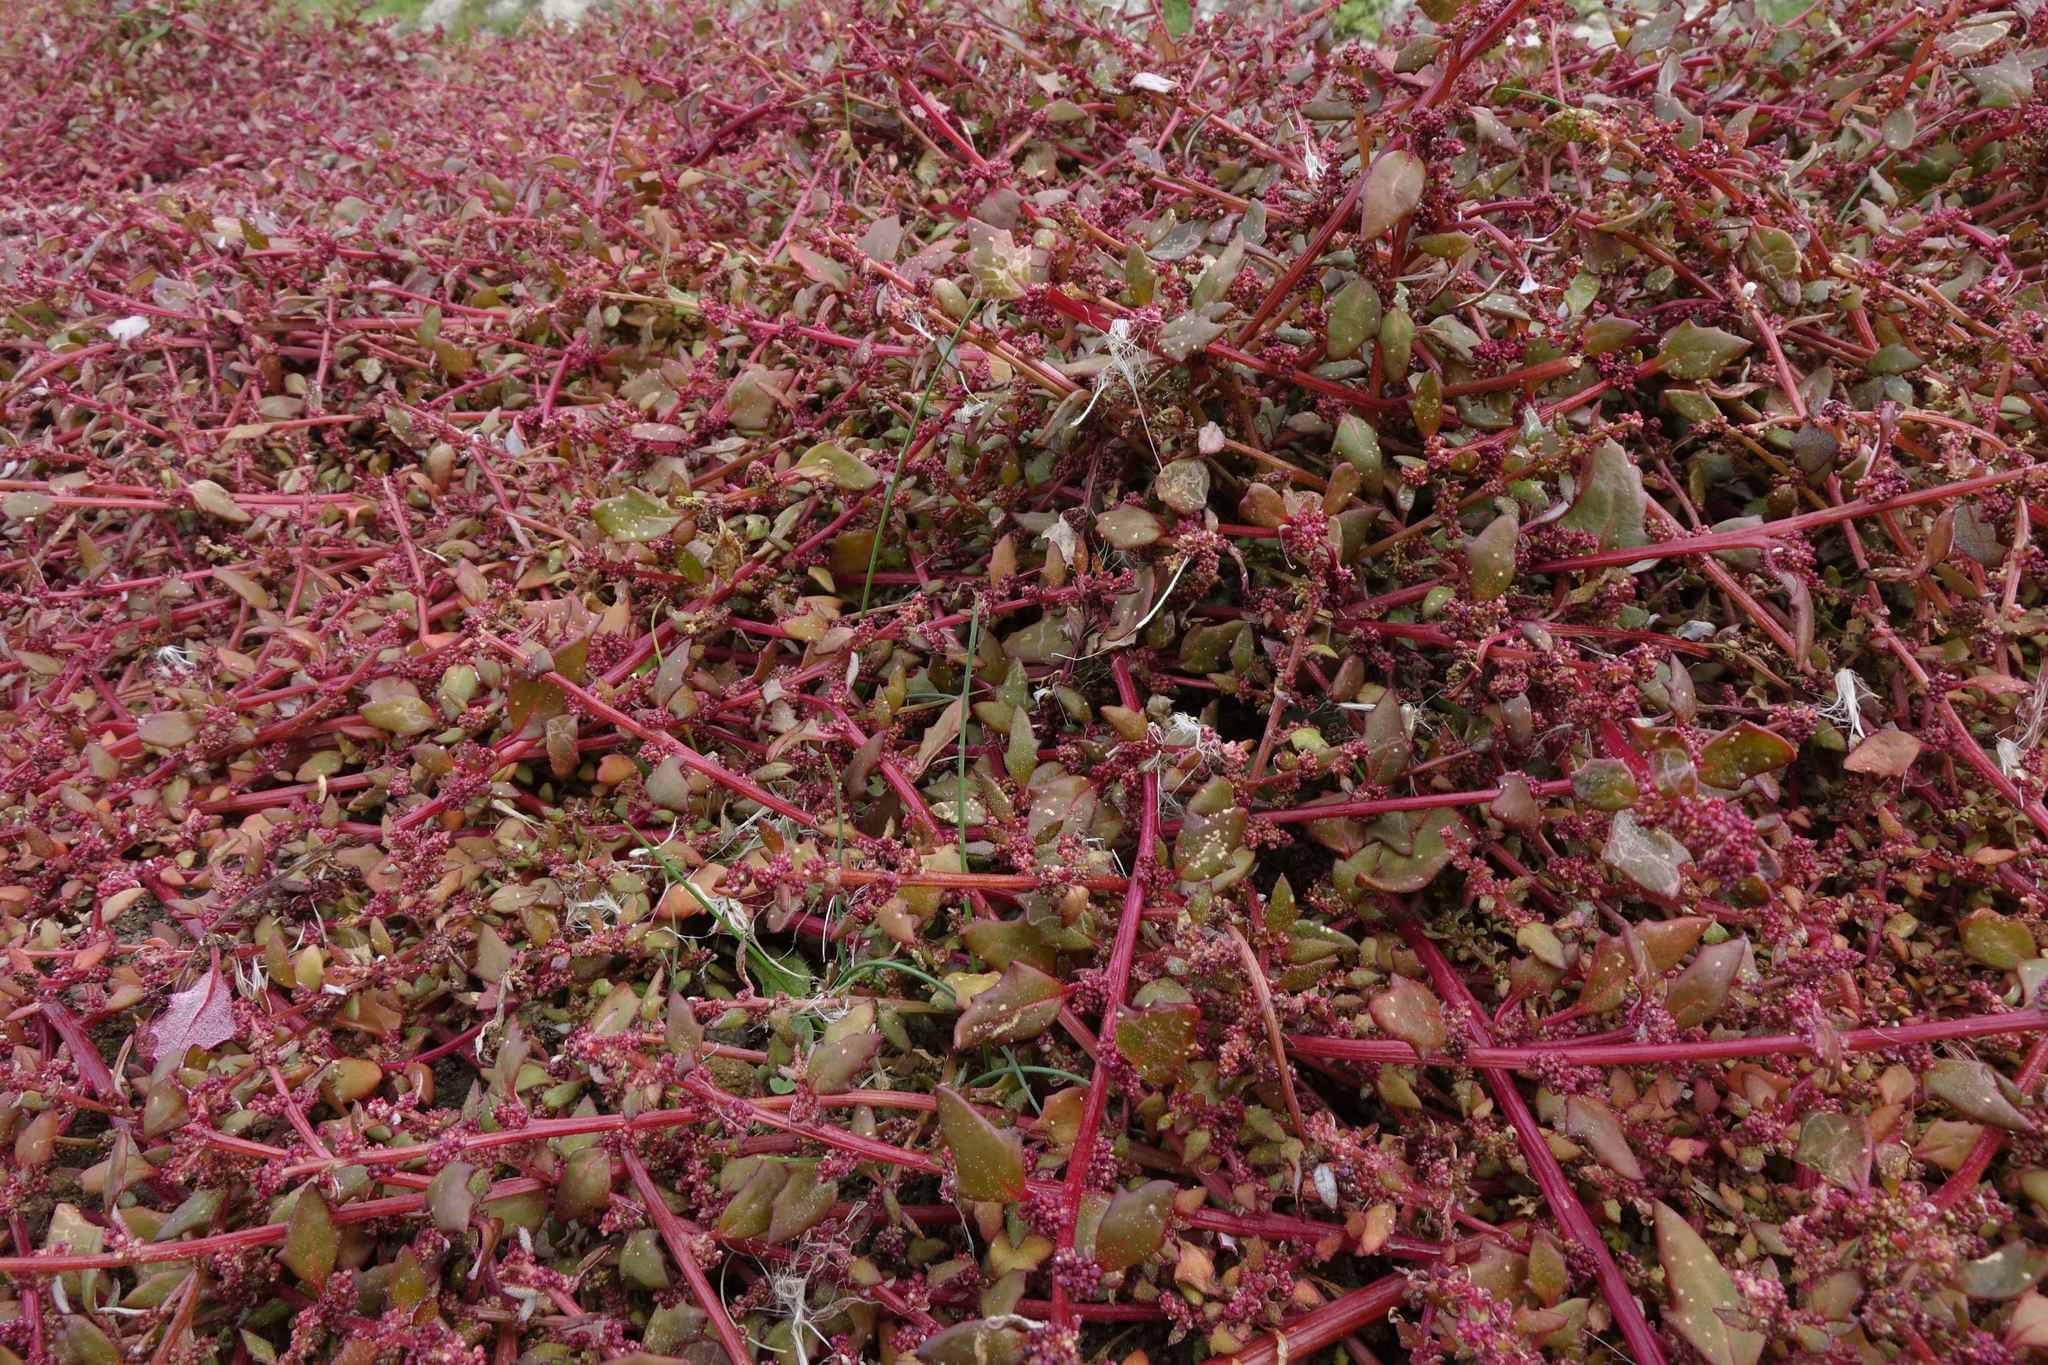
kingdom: Plantae
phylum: Tracheophyta
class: Magnoliopsida
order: Caryophyllales
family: Amaranthaceae
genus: Oxybasis
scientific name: Oxybasis ambigua
